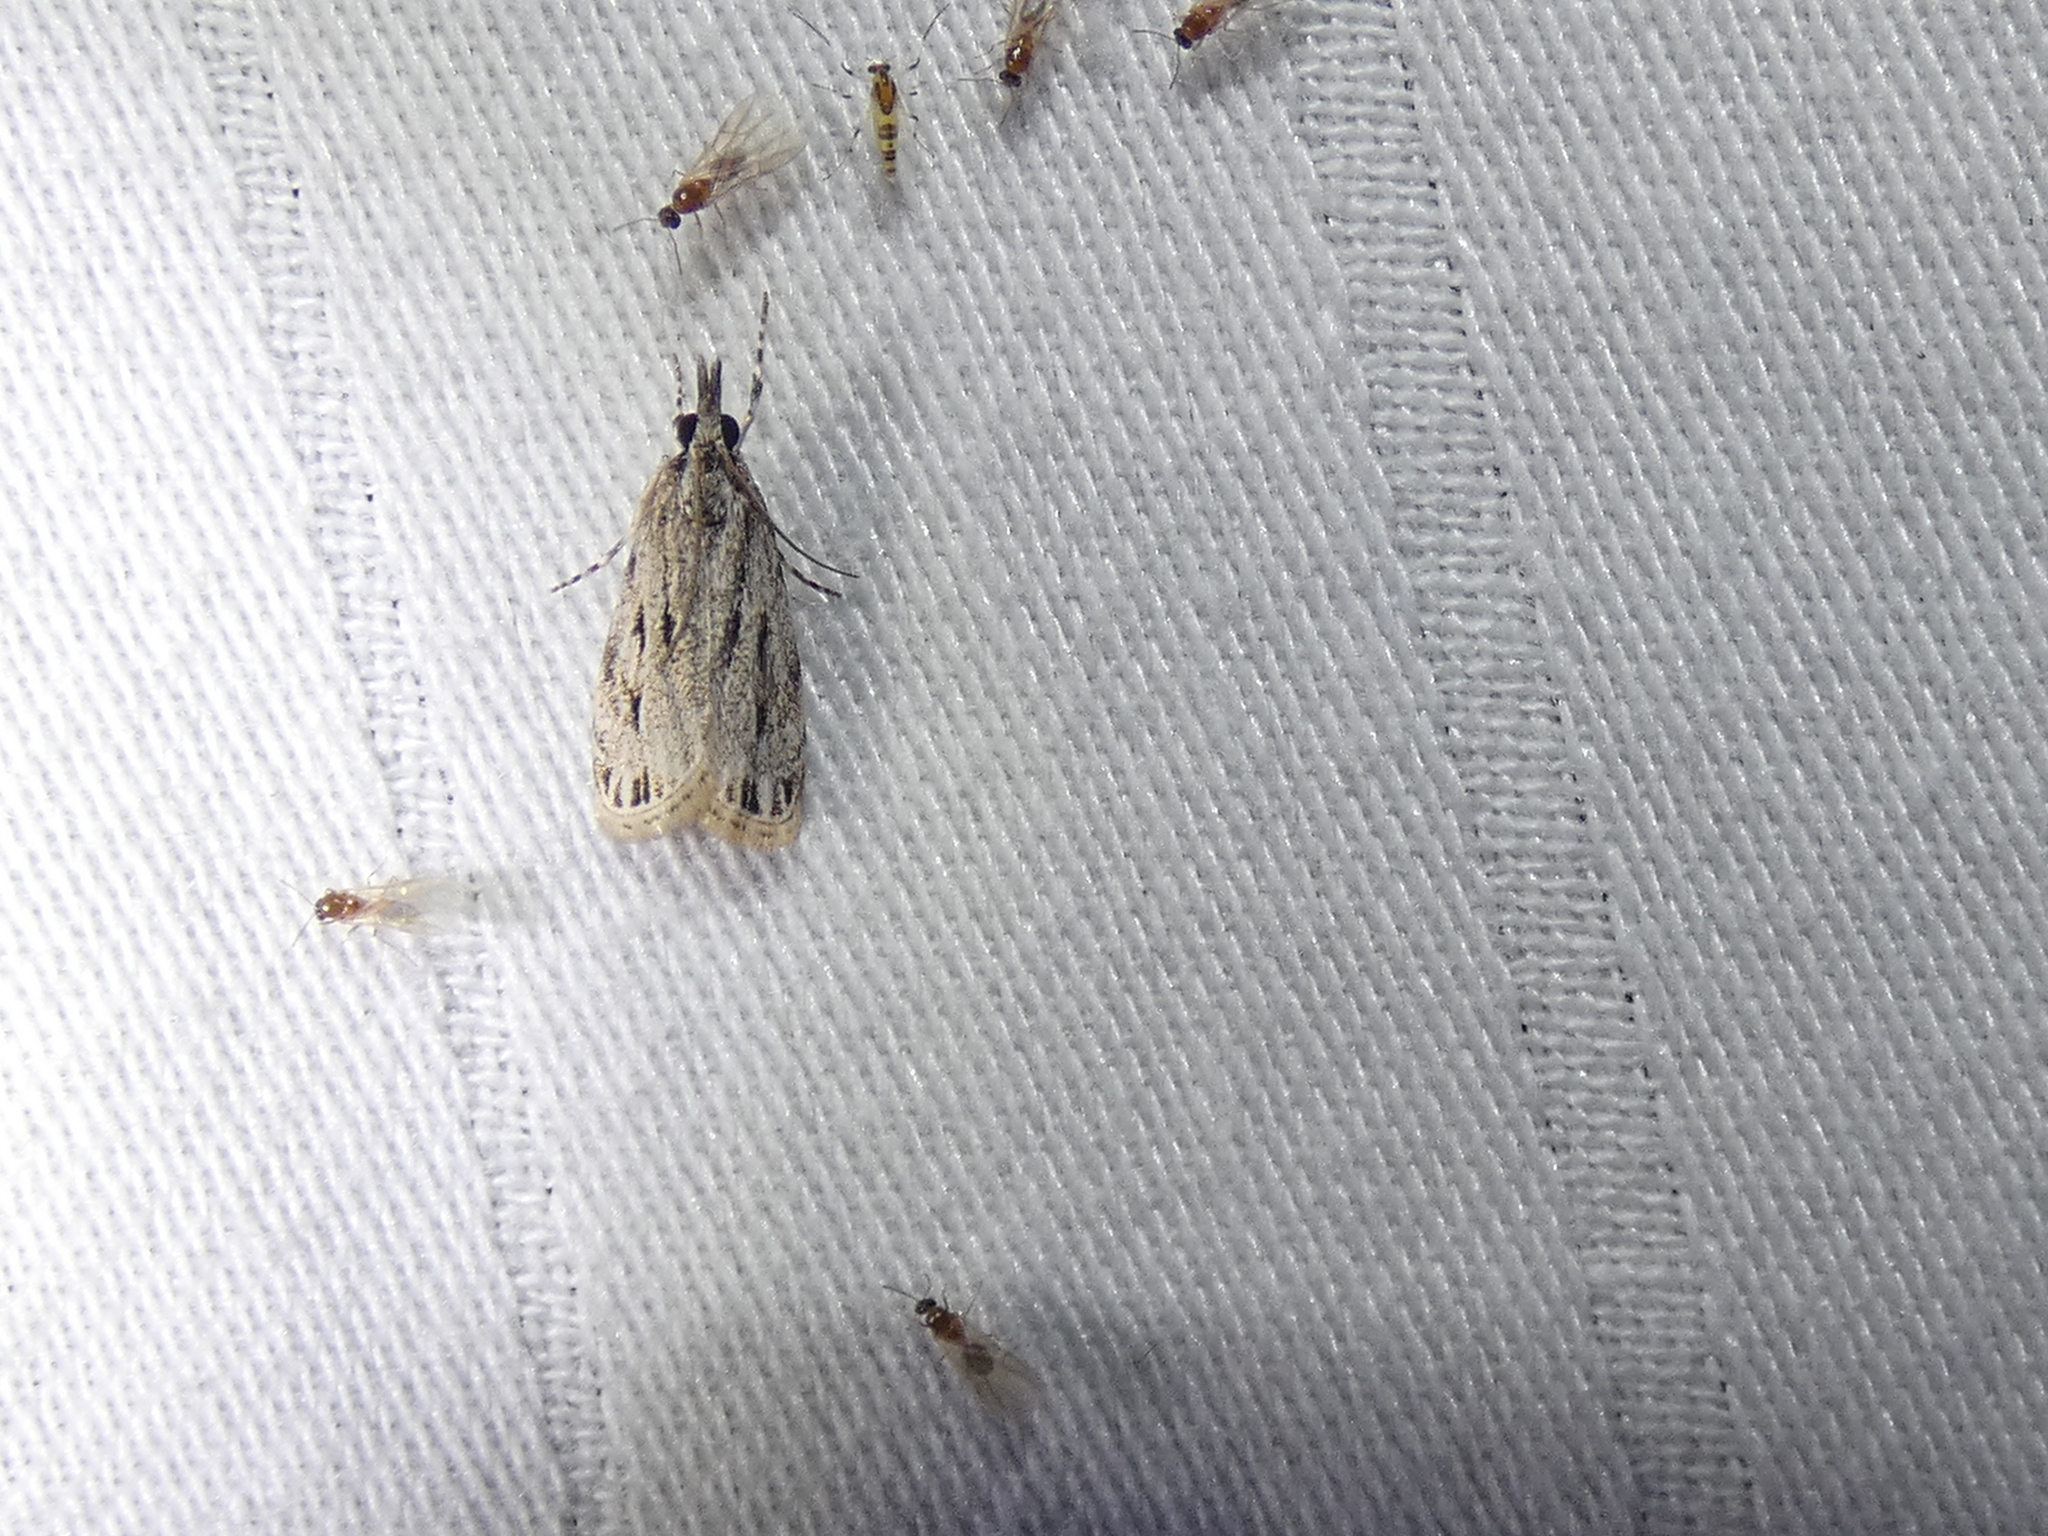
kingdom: Animalia
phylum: Arthropoda
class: Insecta
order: Lepidoptera
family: Crambidae
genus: Eudonia
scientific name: Eudonia strigalis
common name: Striped eudonia moth
